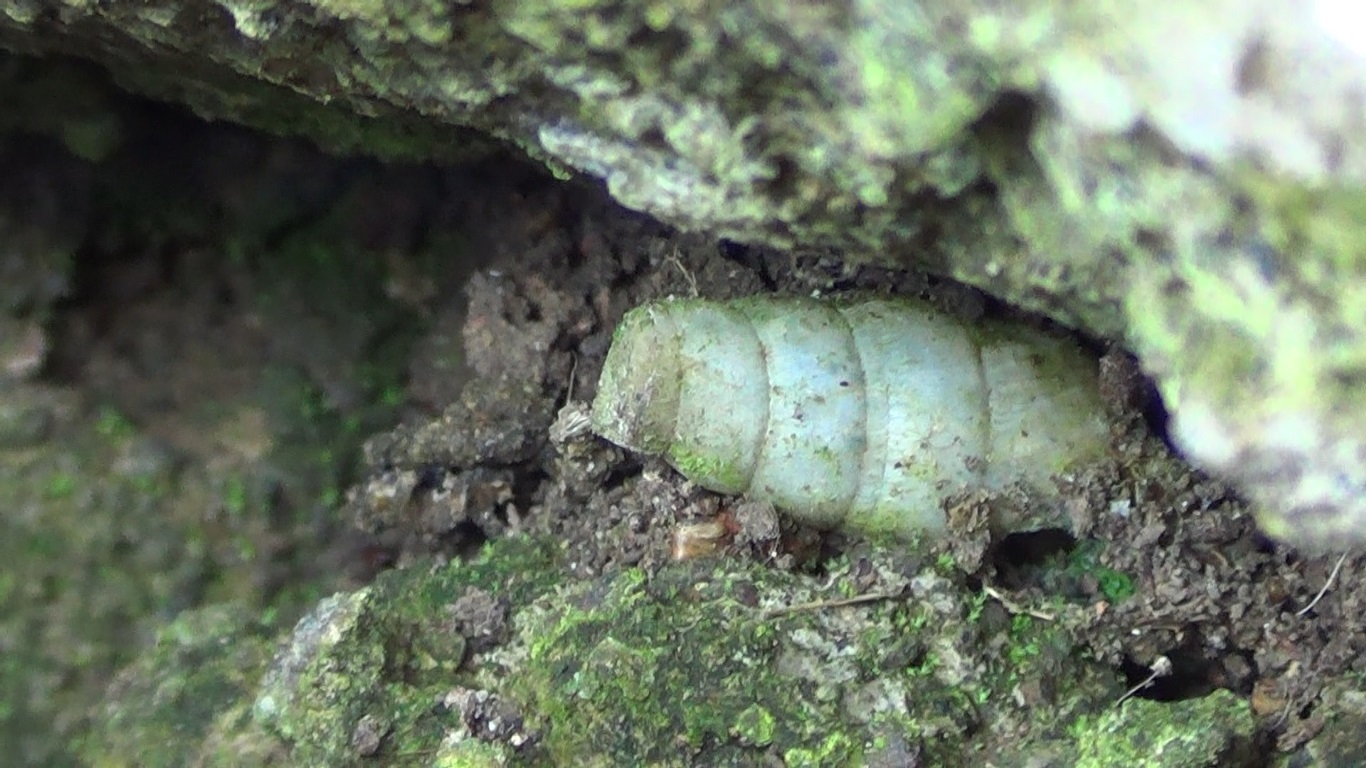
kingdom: Animalia
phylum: Mollusca
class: Gastropoda
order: Stylommatophora
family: Achatinidae
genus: Rumina
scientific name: Rumina decollata
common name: Decollate snail
